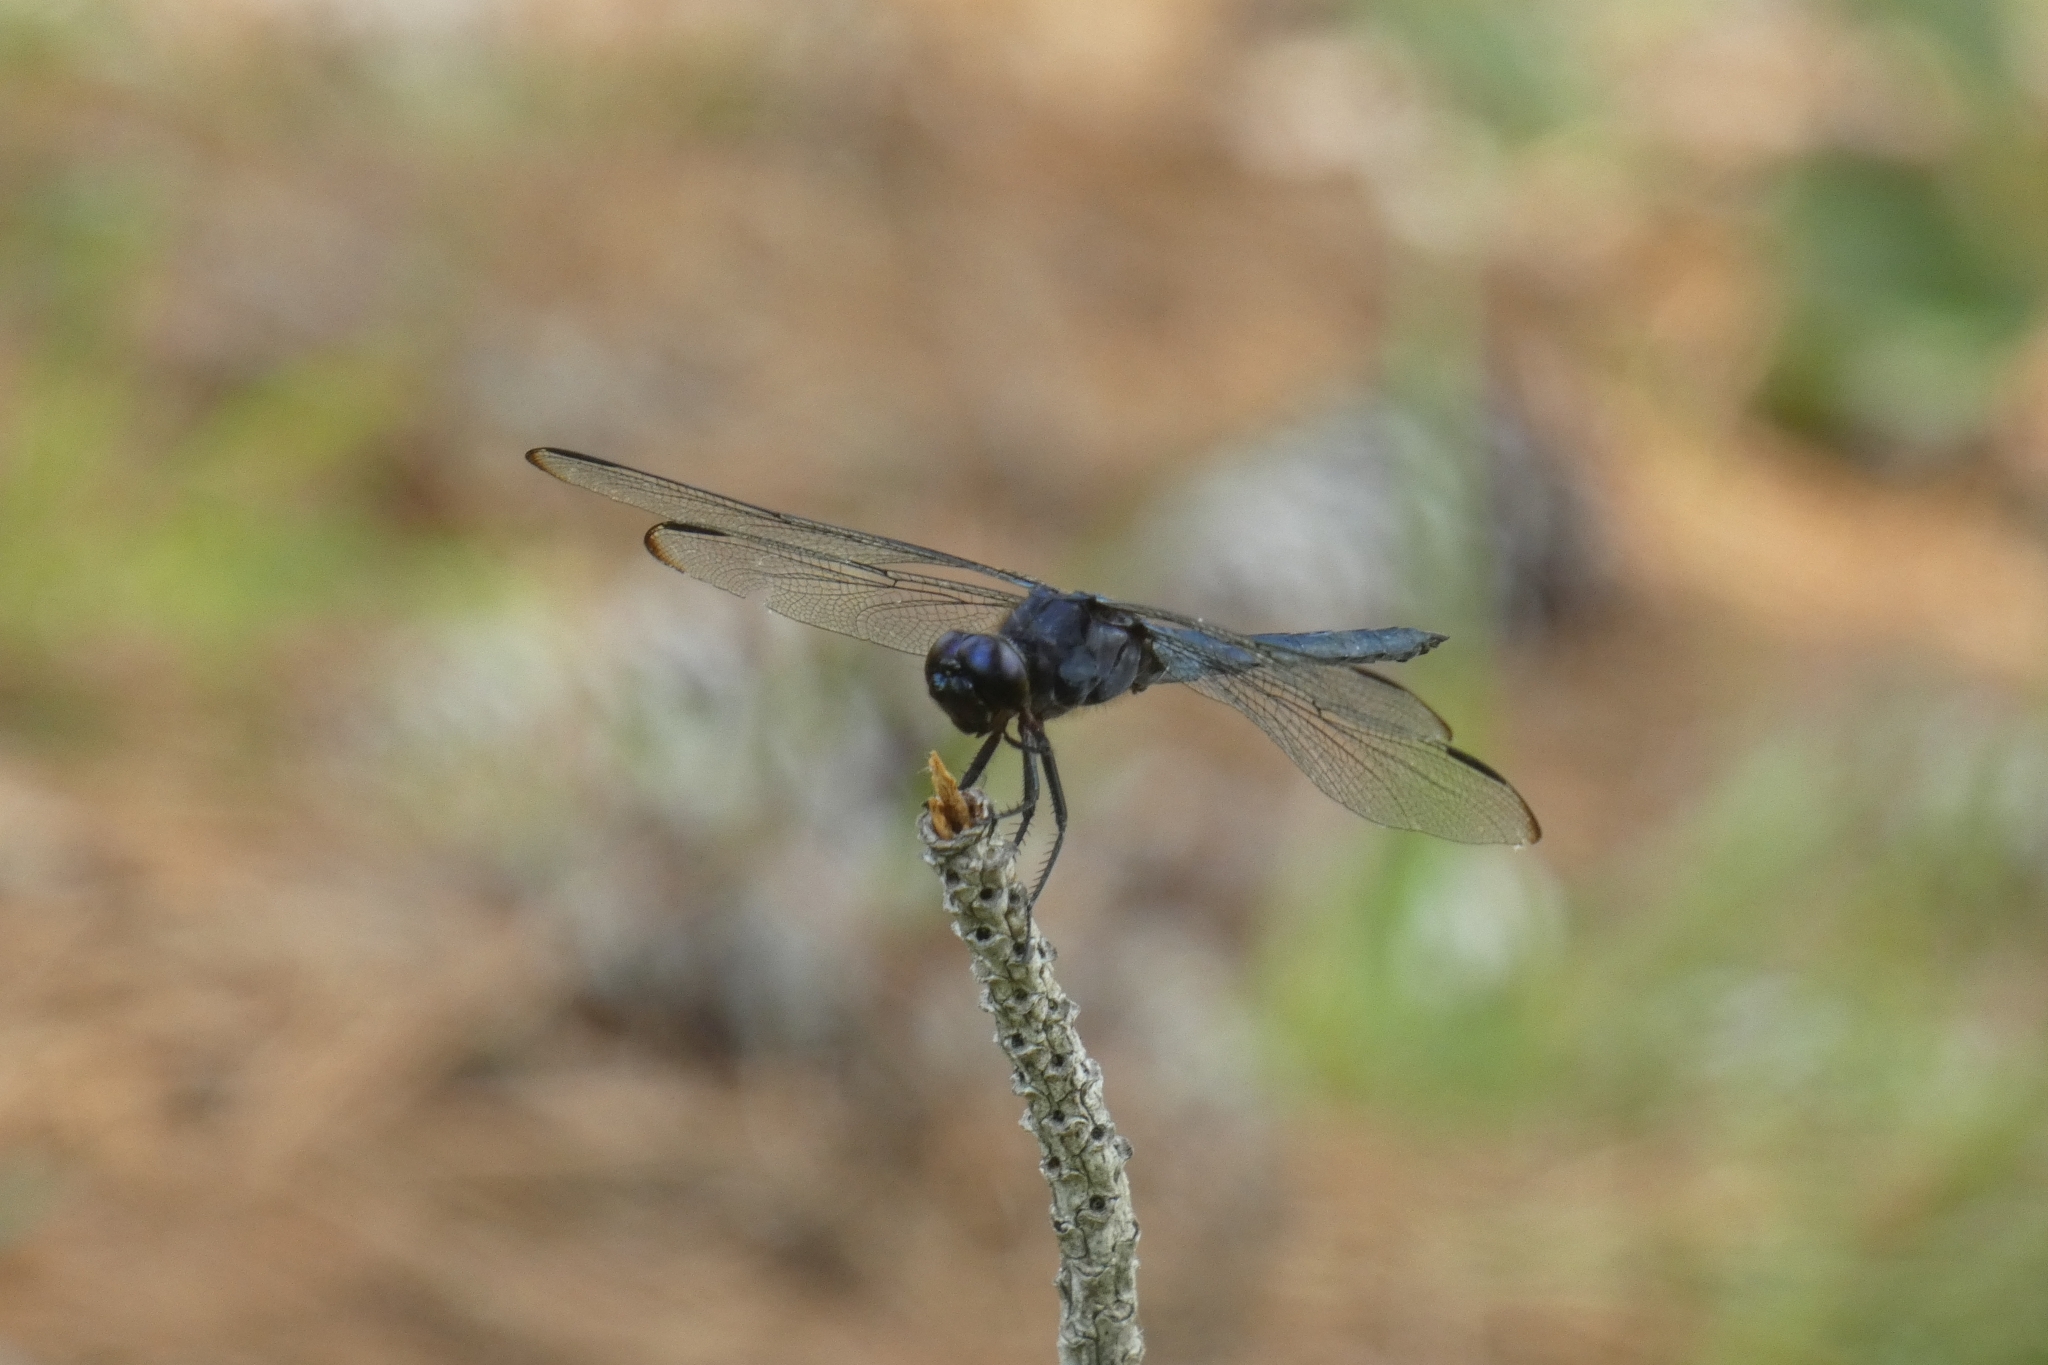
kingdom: Animalia
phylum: Arthropoda
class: Insecta
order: Odonata
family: Libellulidae
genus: Libellula
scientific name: Libellula incesta
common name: Slaty skimmer
